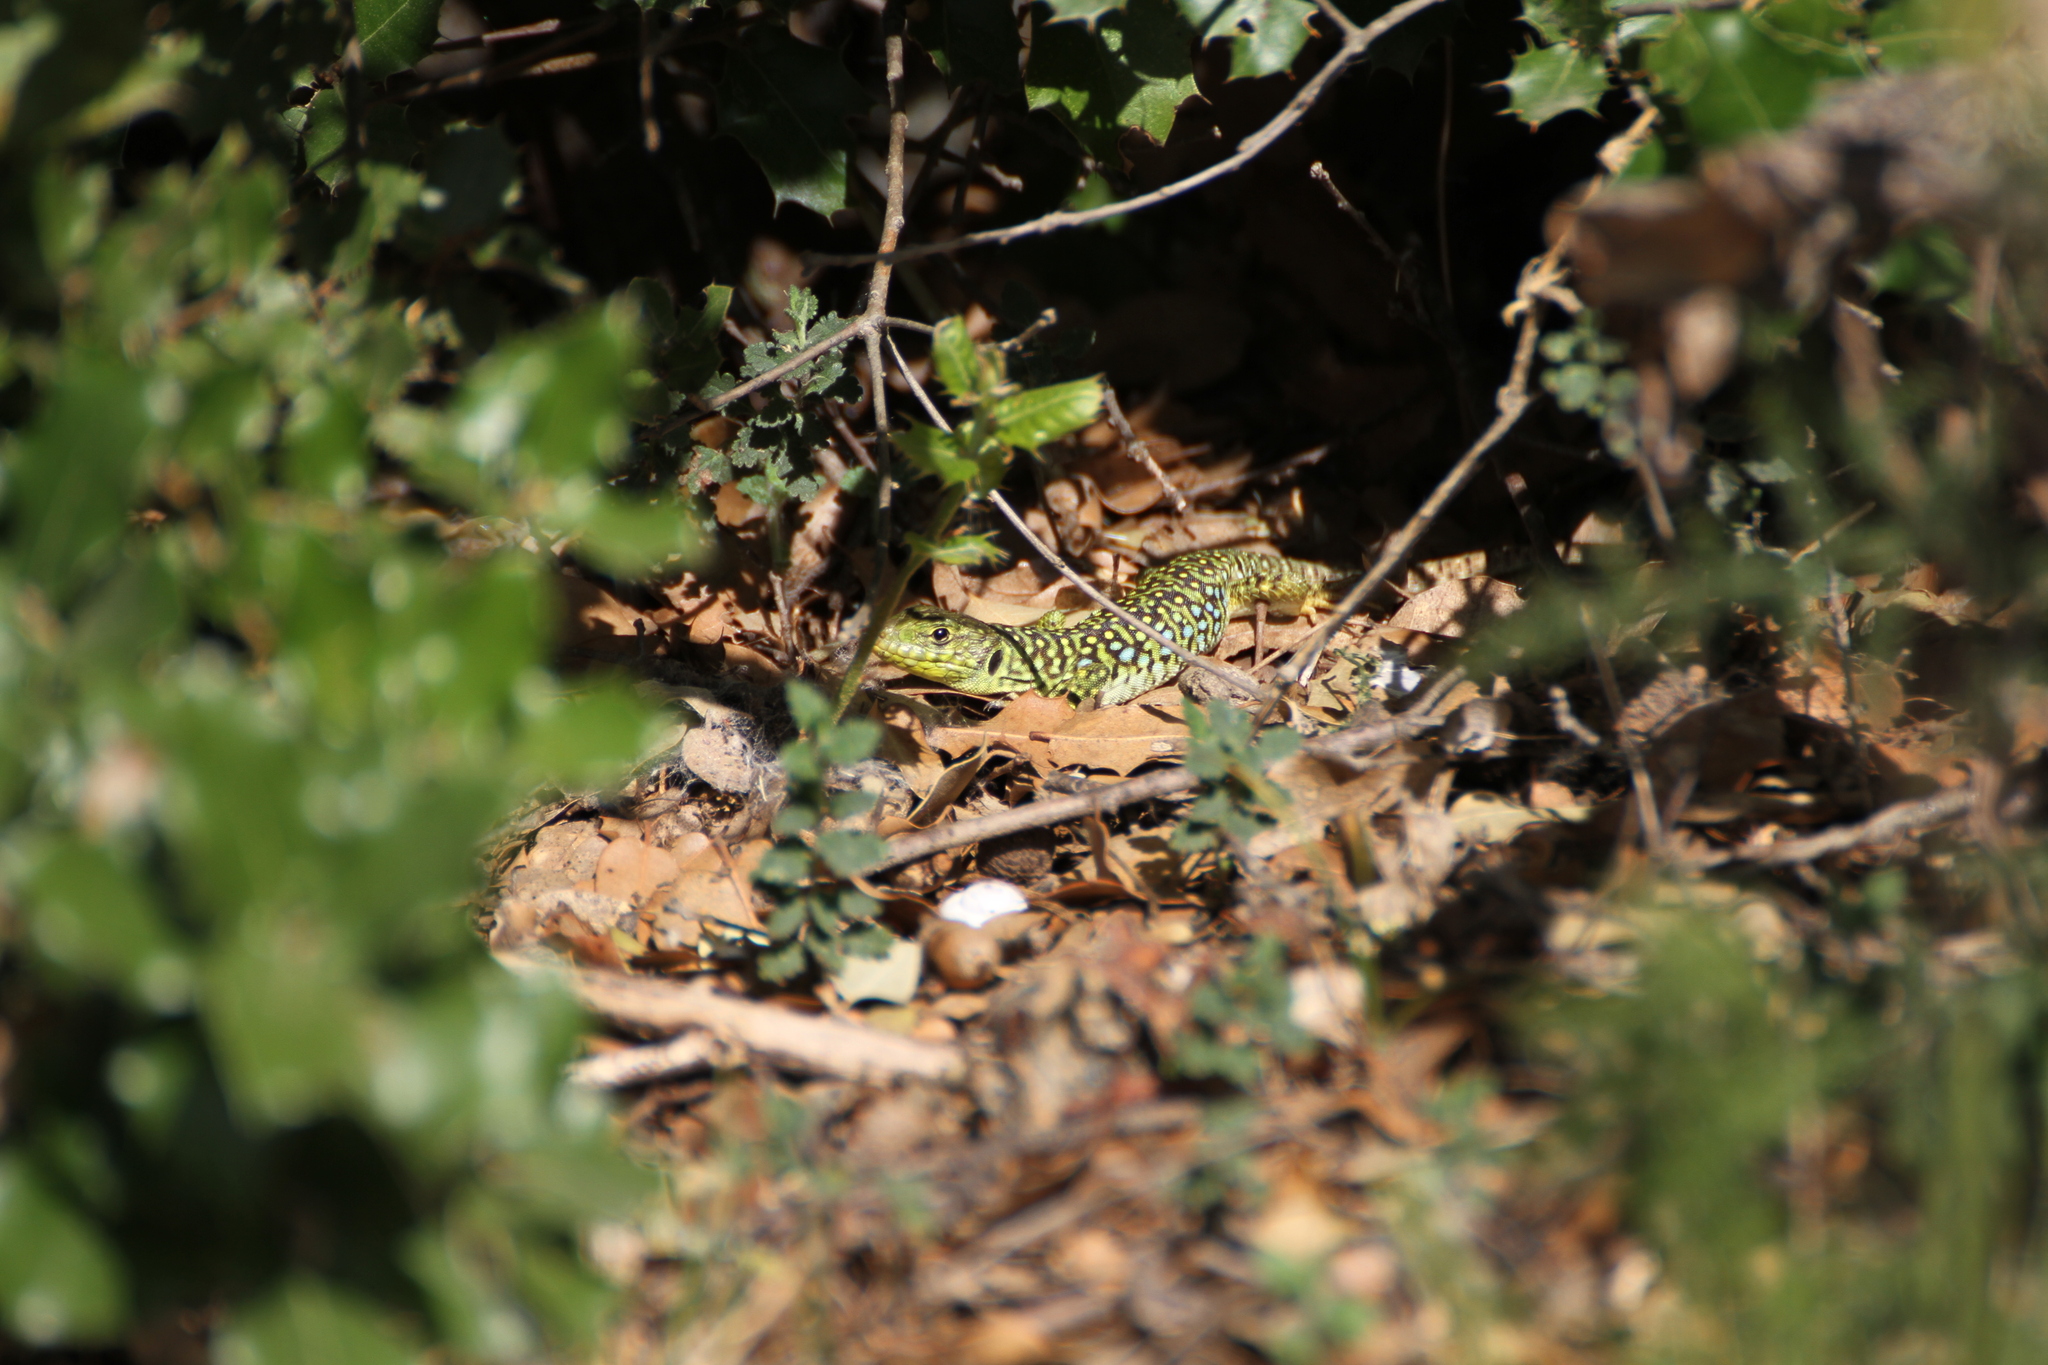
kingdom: Animalia
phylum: Chordata
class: Squamata
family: Lacertidae
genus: Timon
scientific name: Timon lepidus
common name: Ocellated lizard
